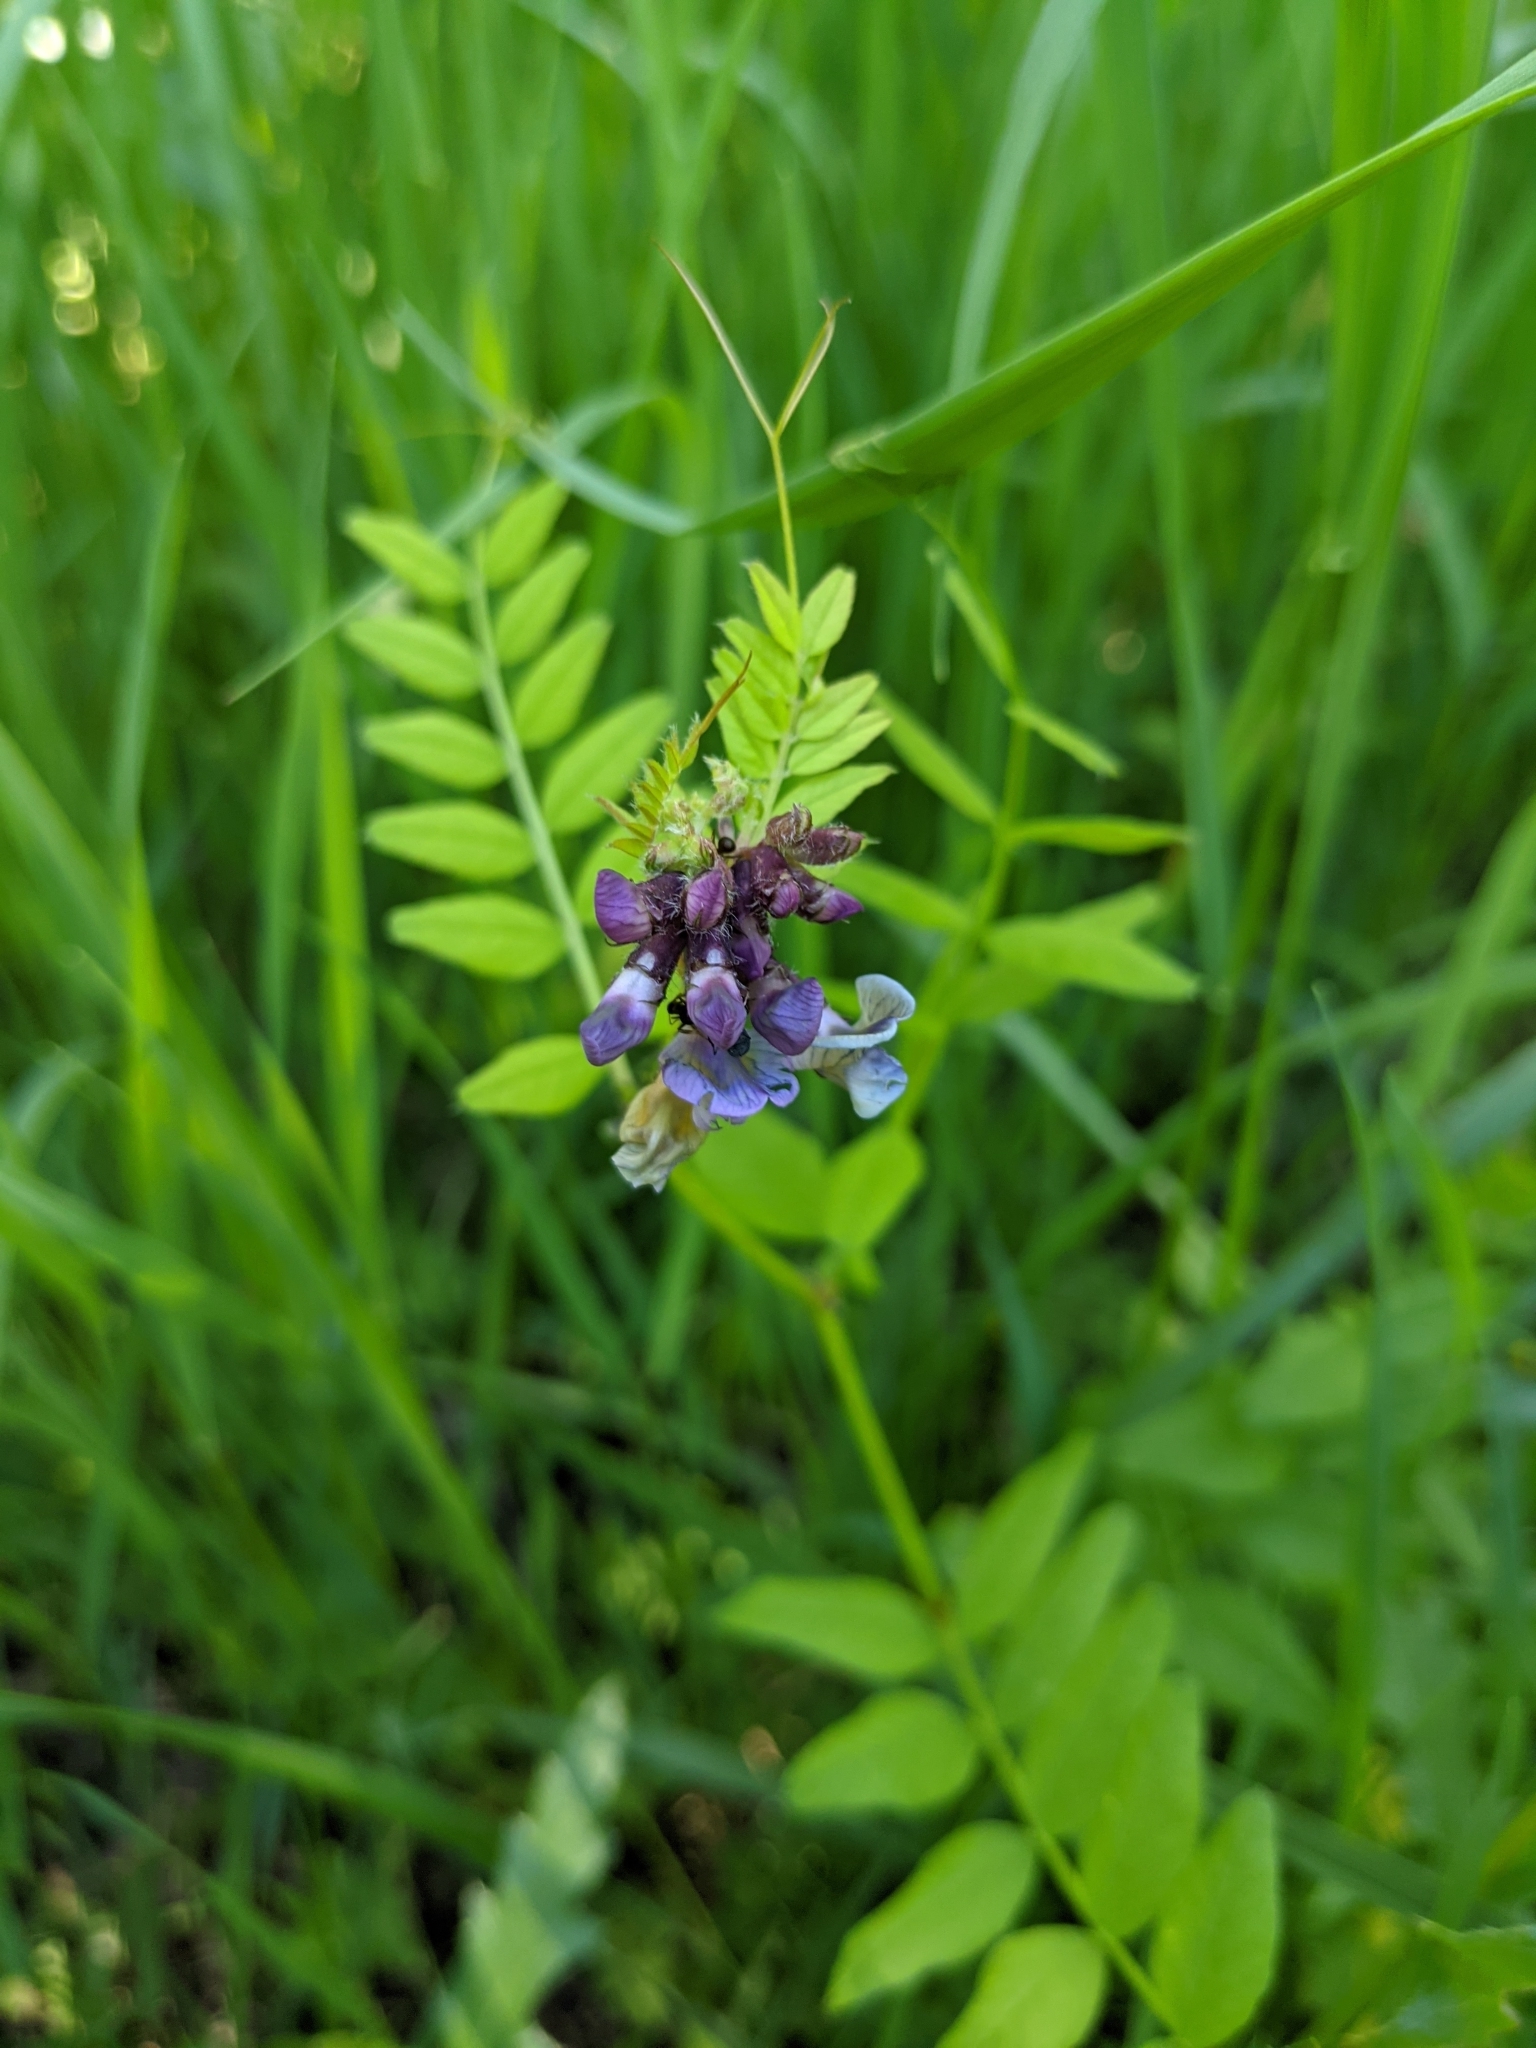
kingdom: Plantae
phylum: Tracheophyta
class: Magnoliopsida
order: Fabales
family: Fabaceae
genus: Vicia
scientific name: Vicia sepium
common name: Bush vetch
